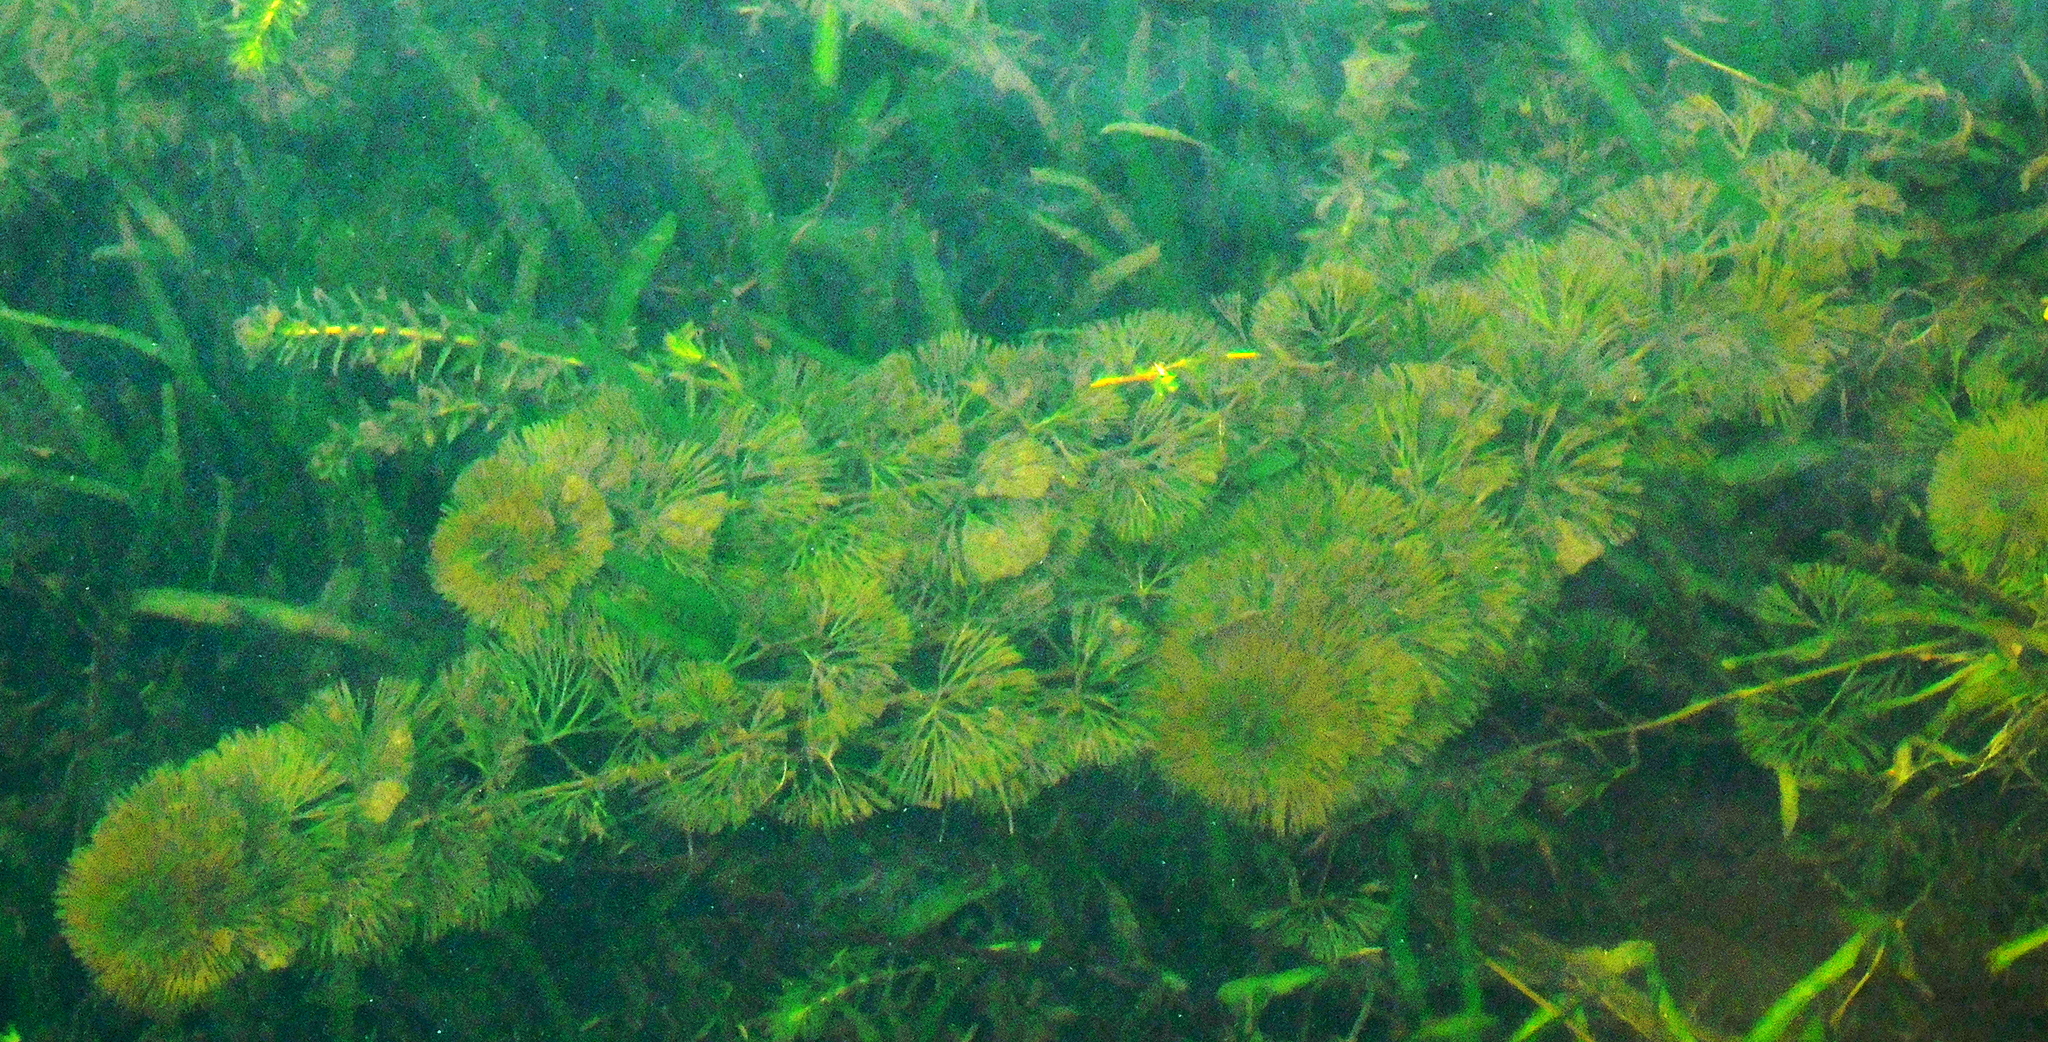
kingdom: Plantae
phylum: Tracheophyta
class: Magnoliopsida
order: Nymphaeales
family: Cabombaceae
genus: Cabomba
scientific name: Cabomba caroliniana
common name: Fanwort
